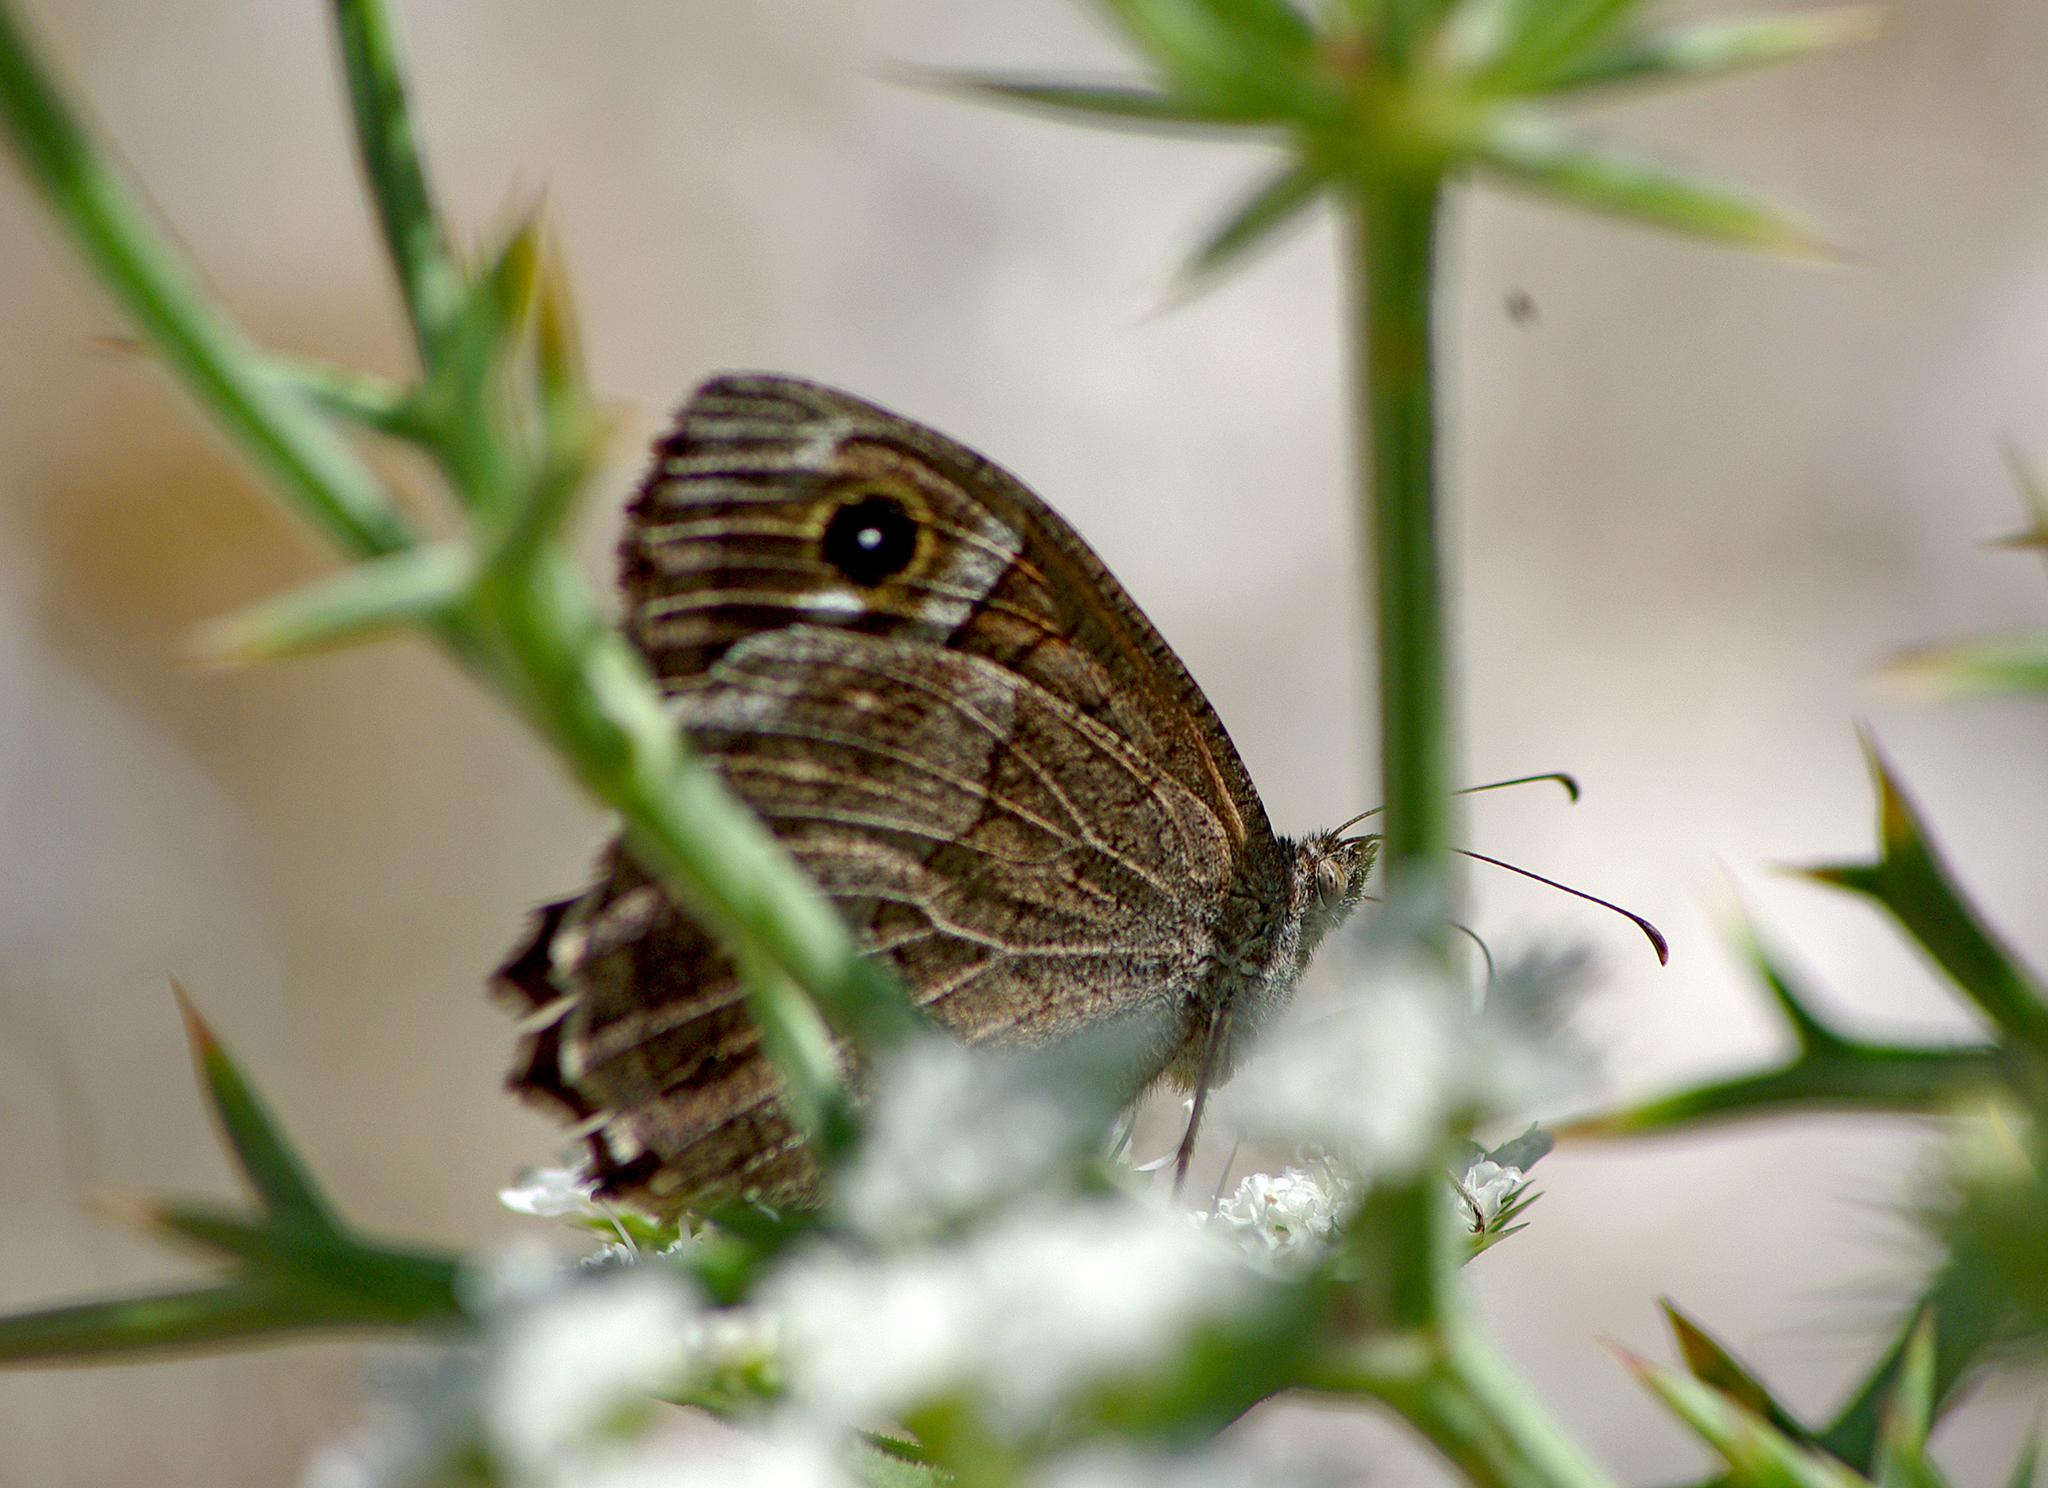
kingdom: Animalia
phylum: Arthropoda
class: Insecta
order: Lepidoptera
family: Nymphalidae
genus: Hipparchia
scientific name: Hipparchia statilinus
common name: Tree grayling
